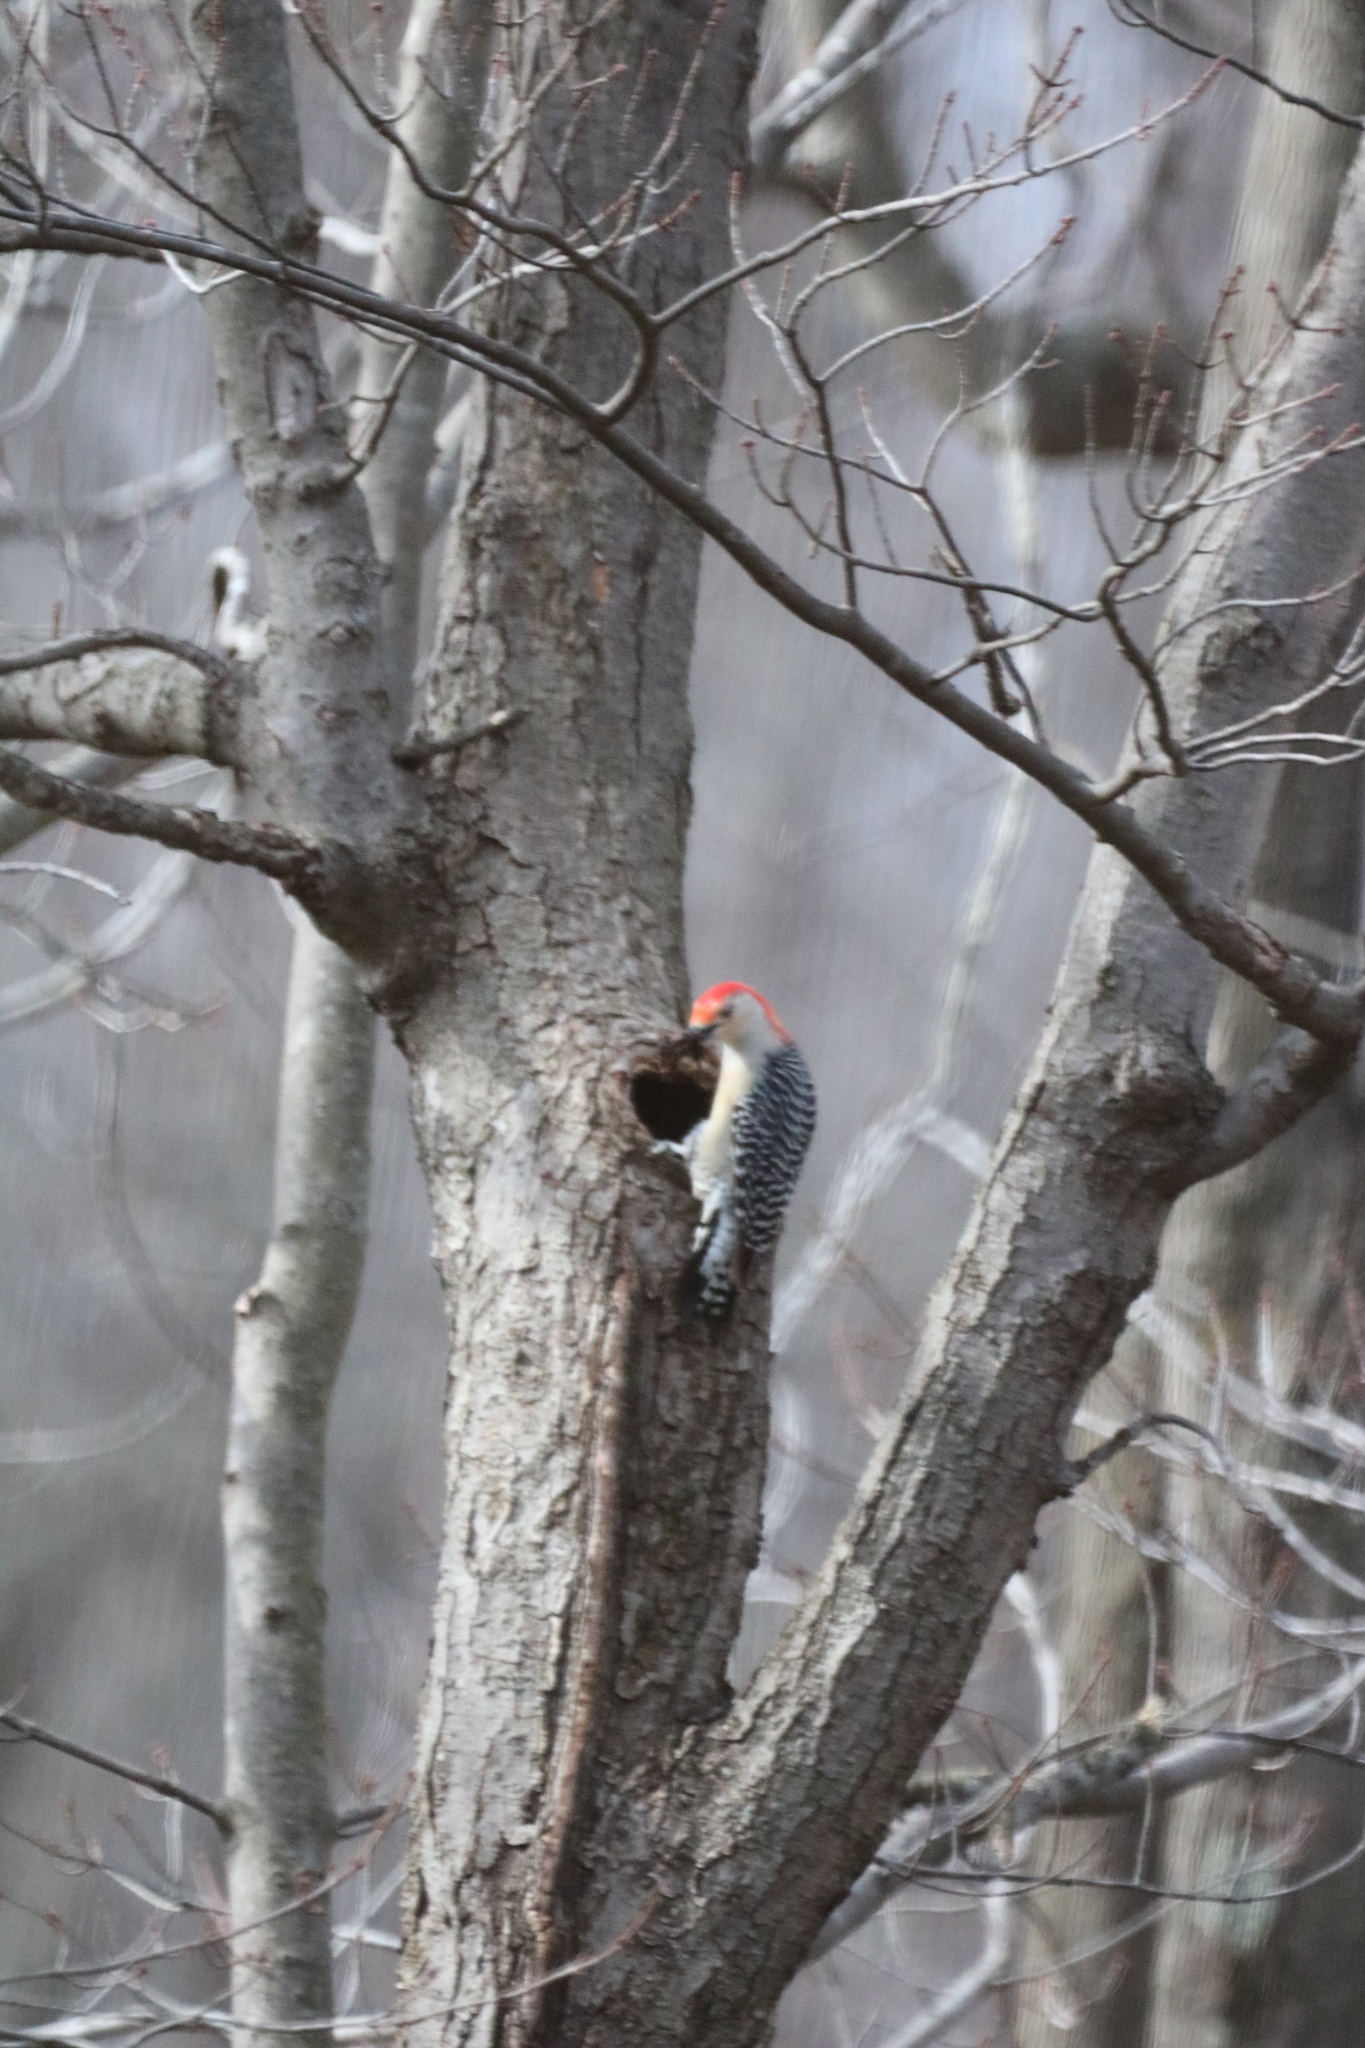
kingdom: Animalia
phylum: Chordata
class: Aves
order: Piciformes
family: Picidae
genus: Melanerpes
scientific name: Melanerpes carolinus
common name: Red-bellied woodpecker
